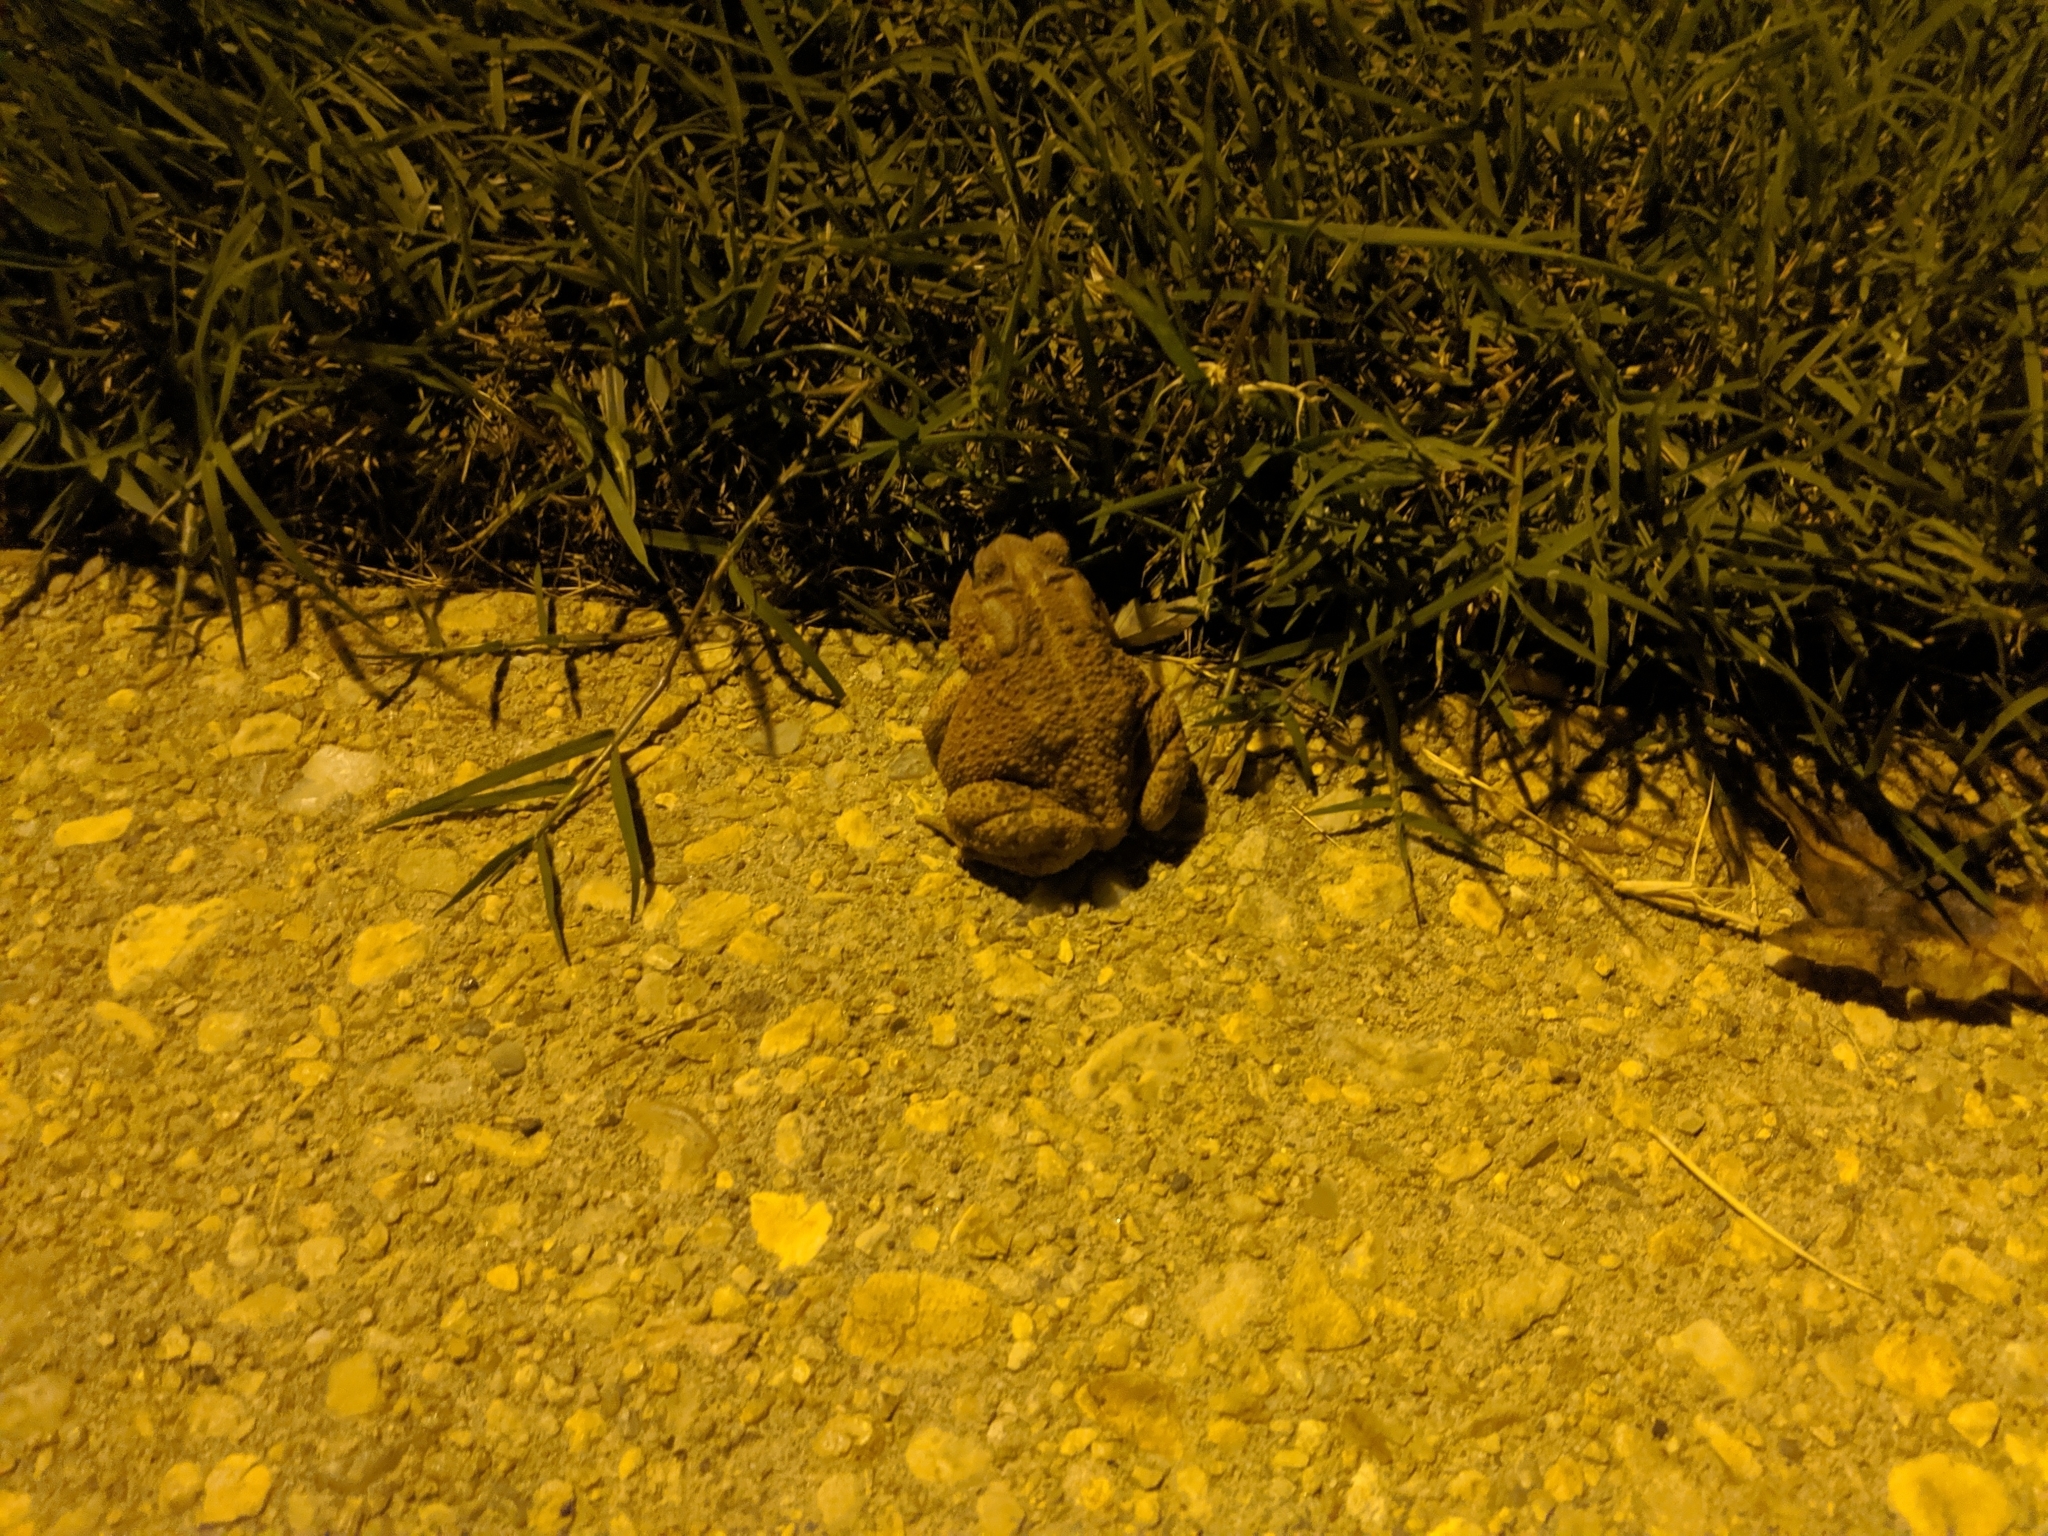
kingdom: Animalia
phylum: Chordata
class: Amphibia
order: Anura
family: Bufonidae
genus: Anaxyrus
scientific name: Anaxyrus americanus
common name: American toad
